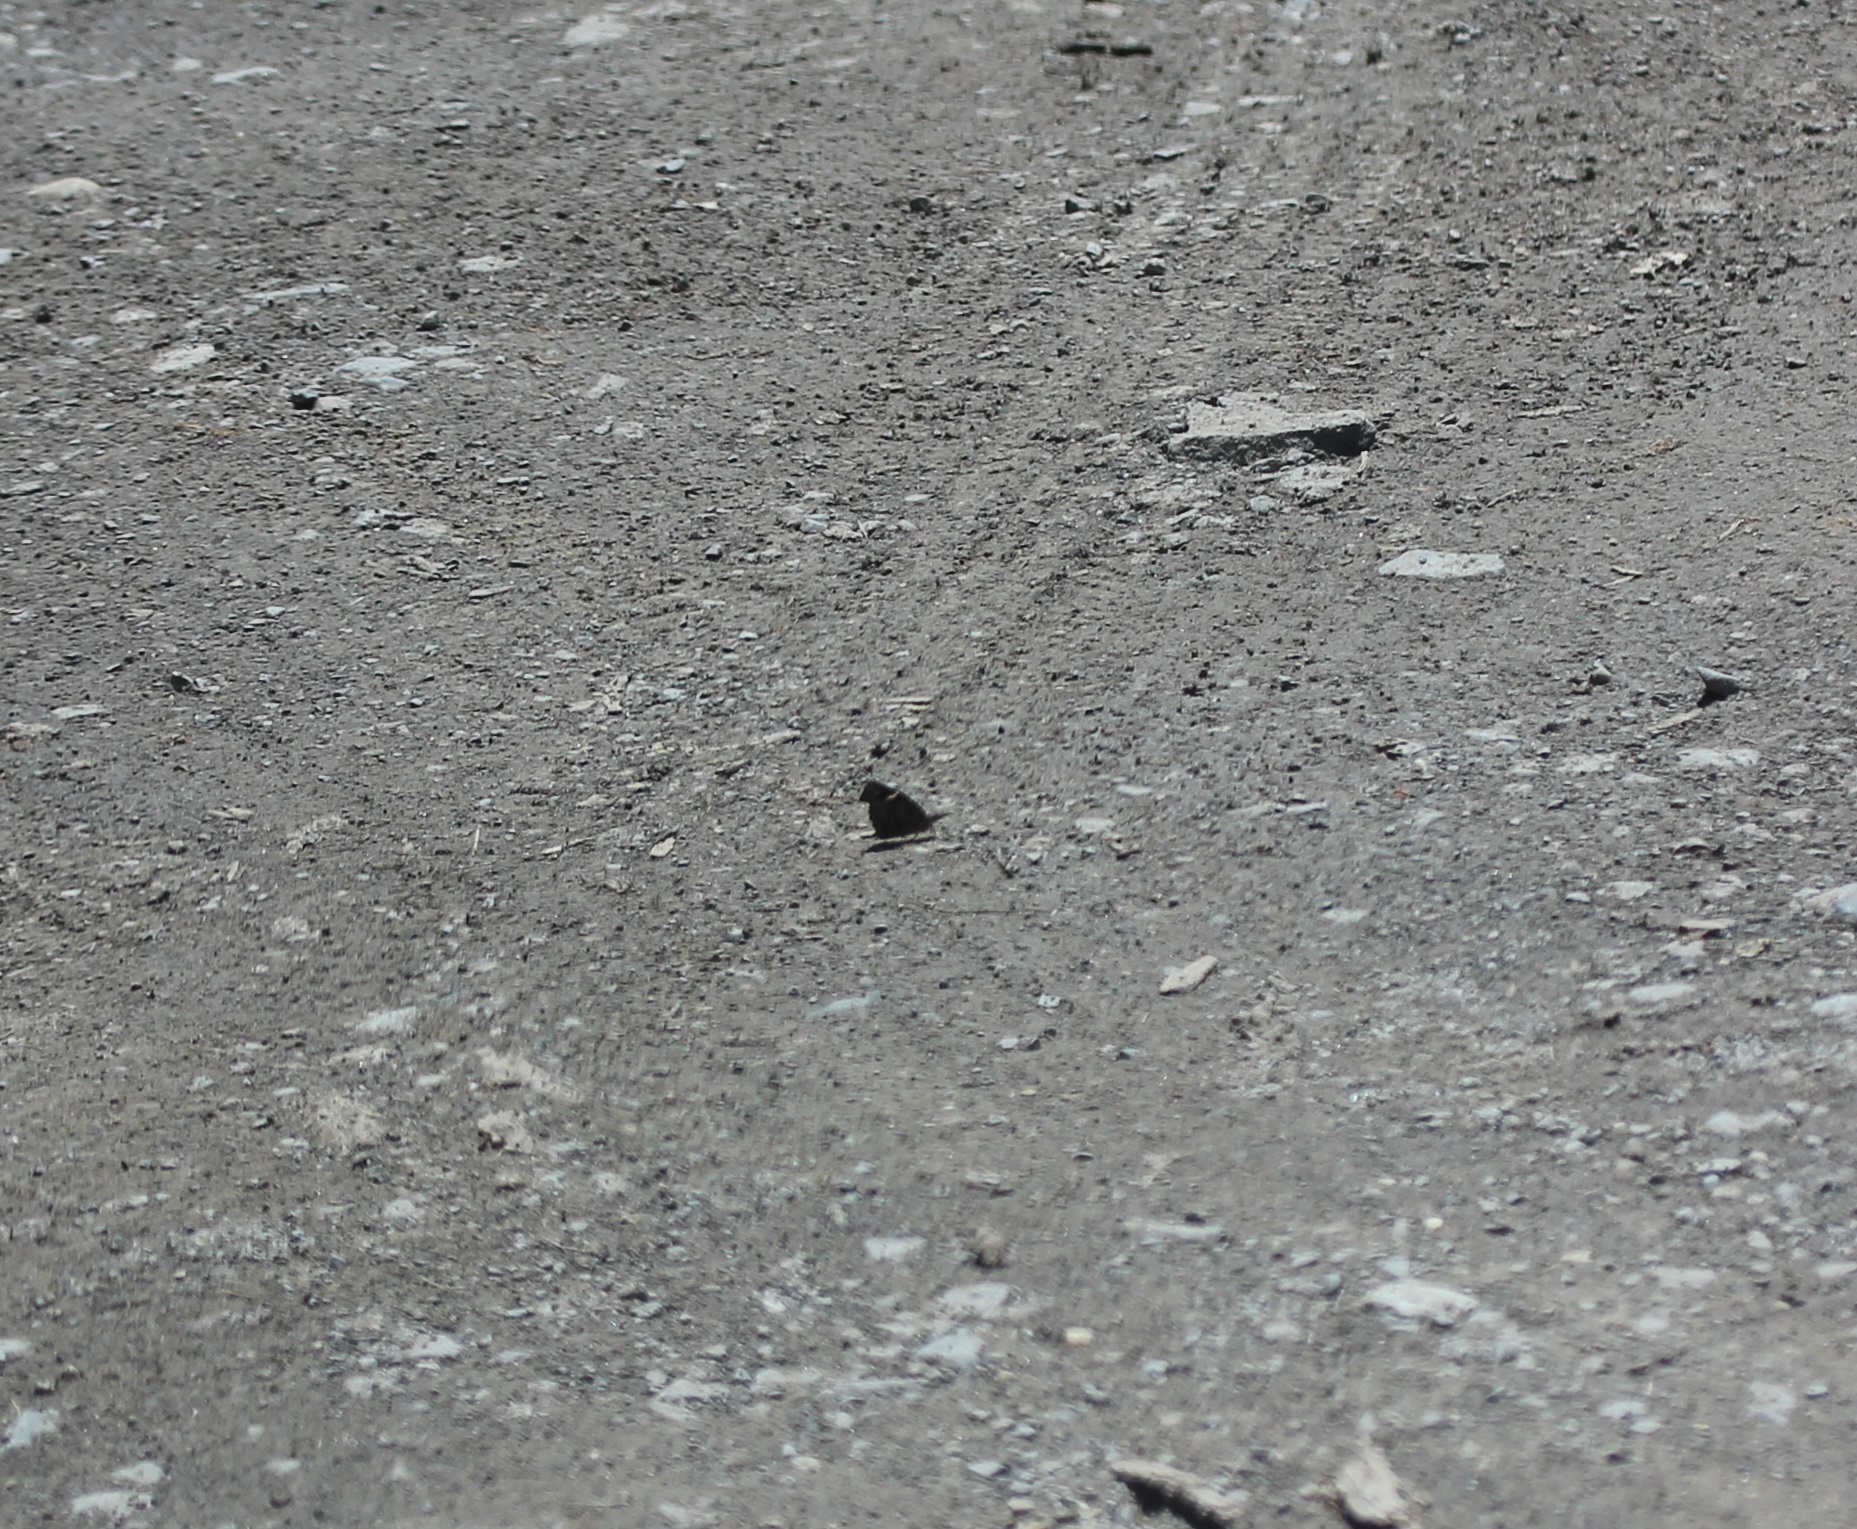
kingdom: Animalia
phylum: Arthropoda
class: Insecta
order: Lepidoptera
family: Nymphalidae
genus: Libytheana
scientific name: Libytheana carinenta
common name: American snout
